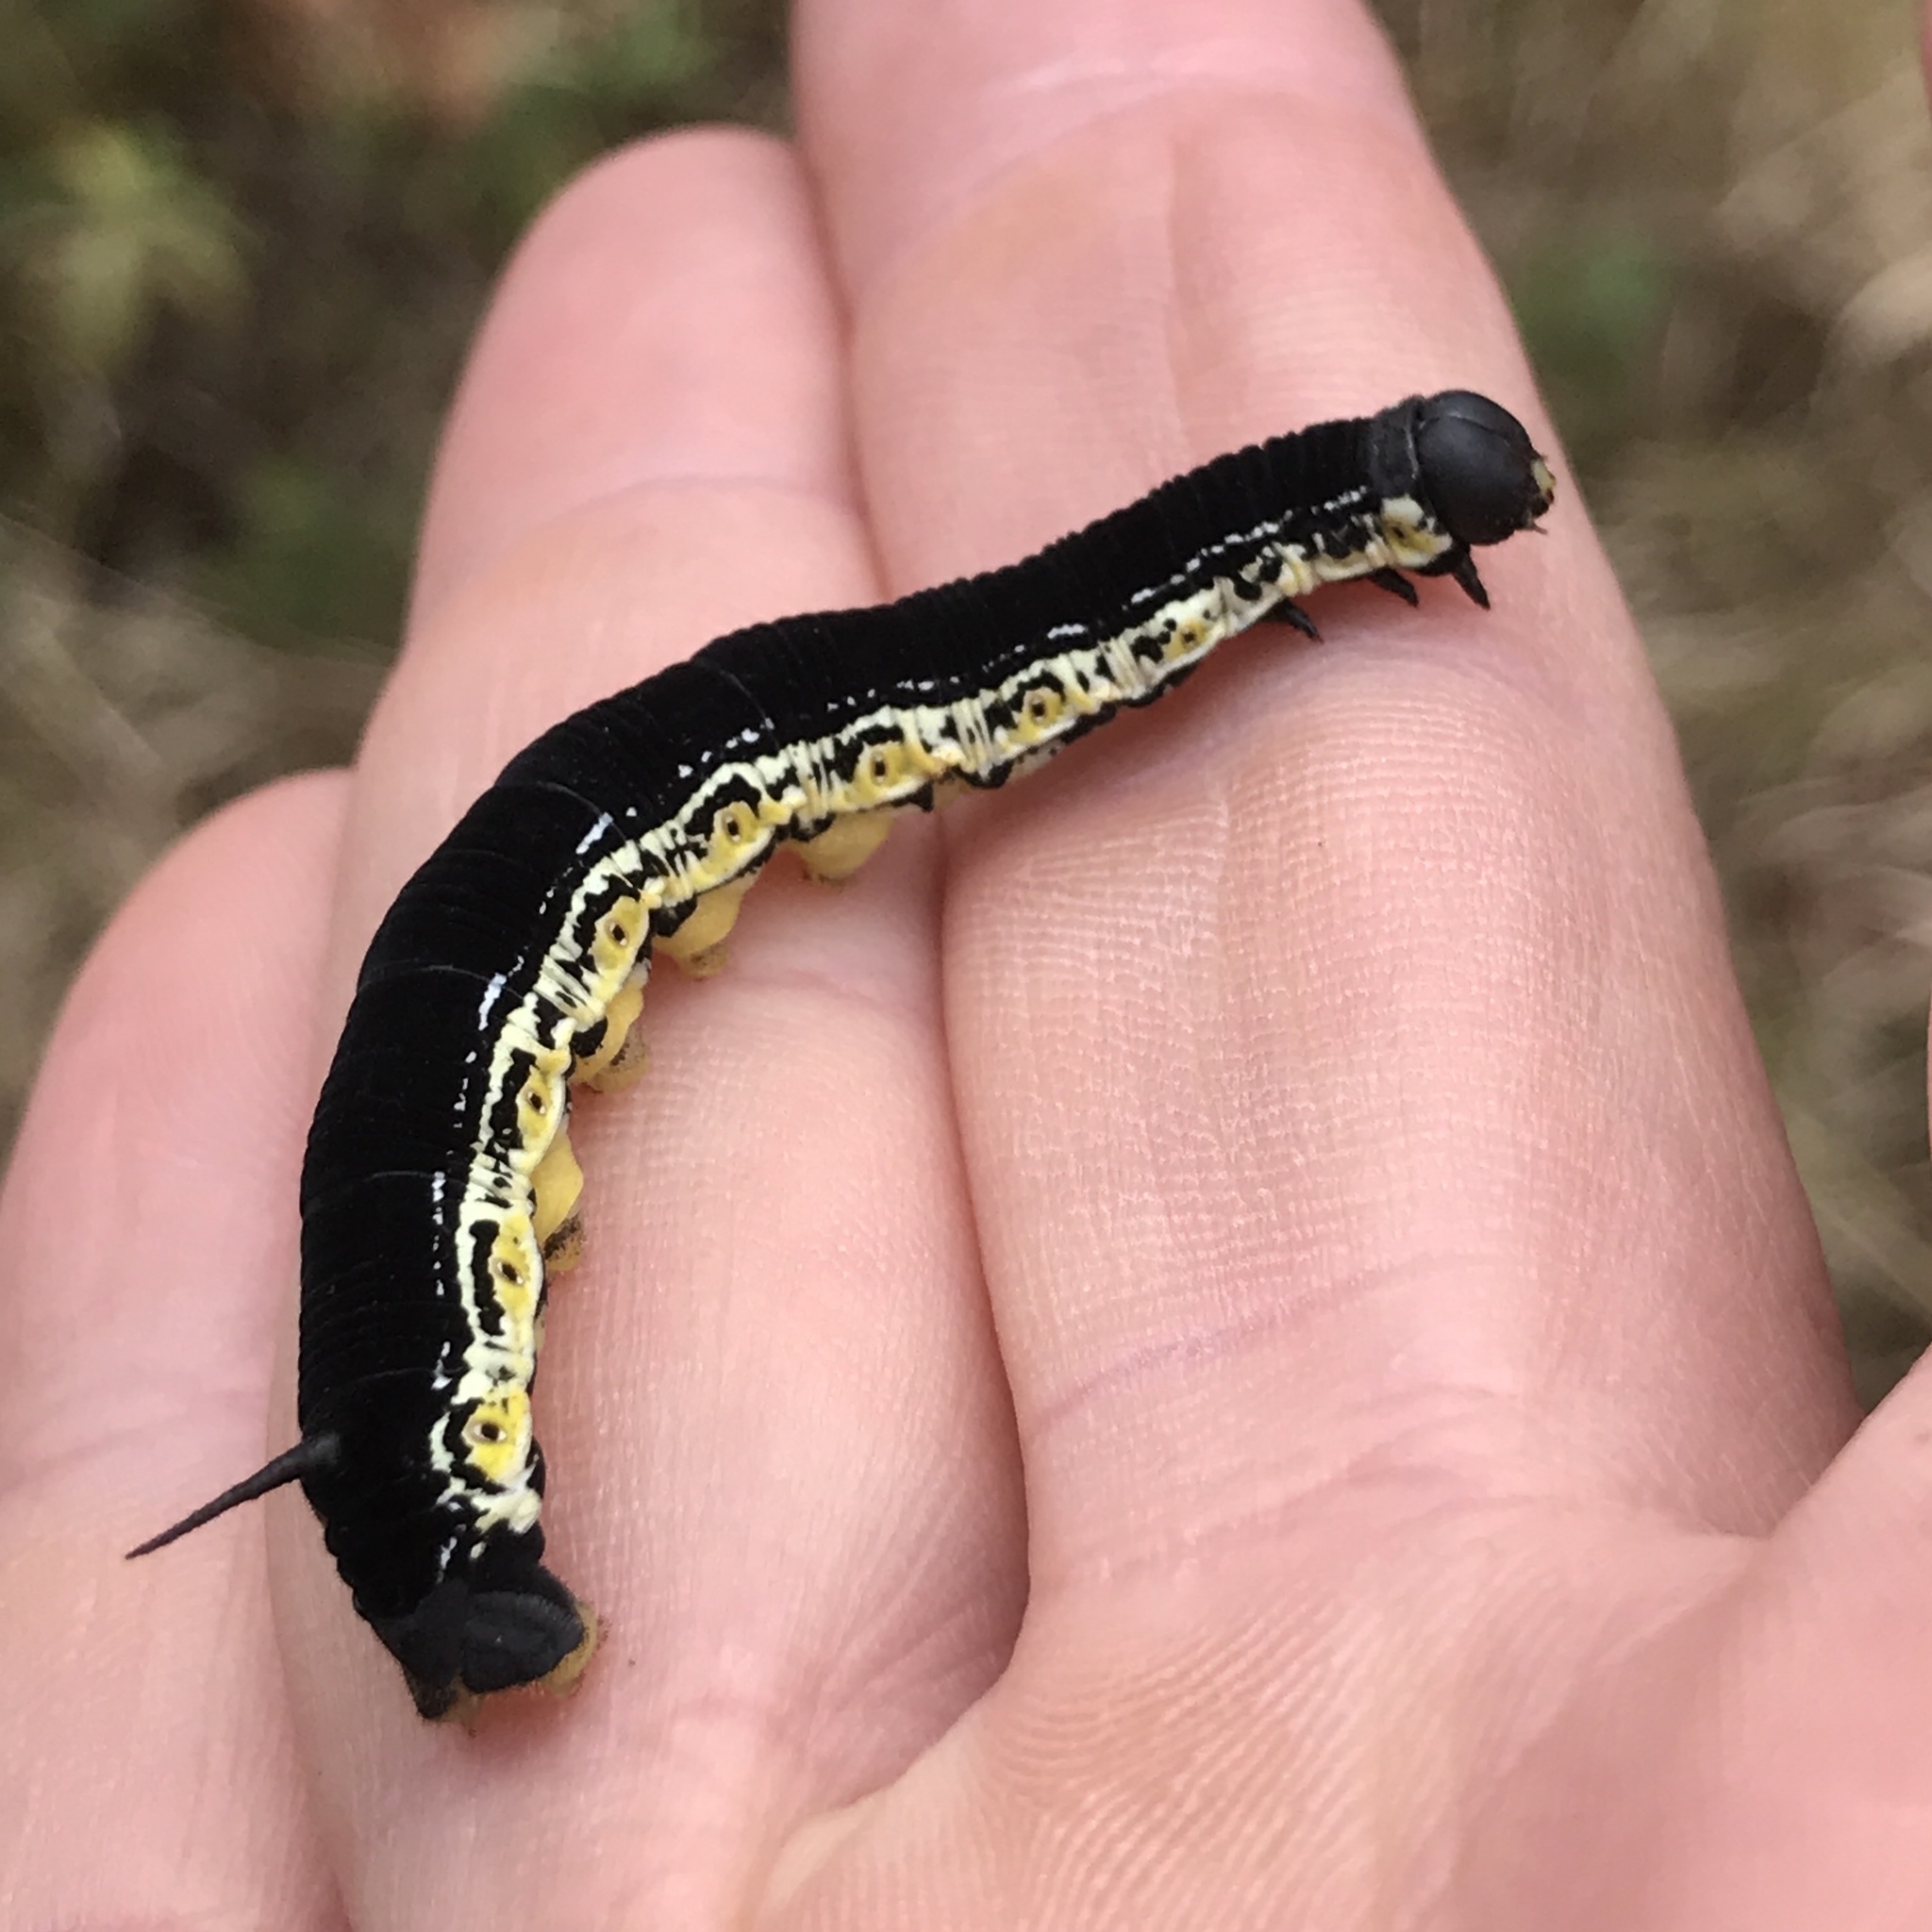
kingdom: Animalia
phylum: Arthropoda
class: Insecta
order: Lepidoptera
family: Sphingidae
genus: Ceratomia
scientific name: Ceratomia catalpae
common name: Catalpa hornworm
